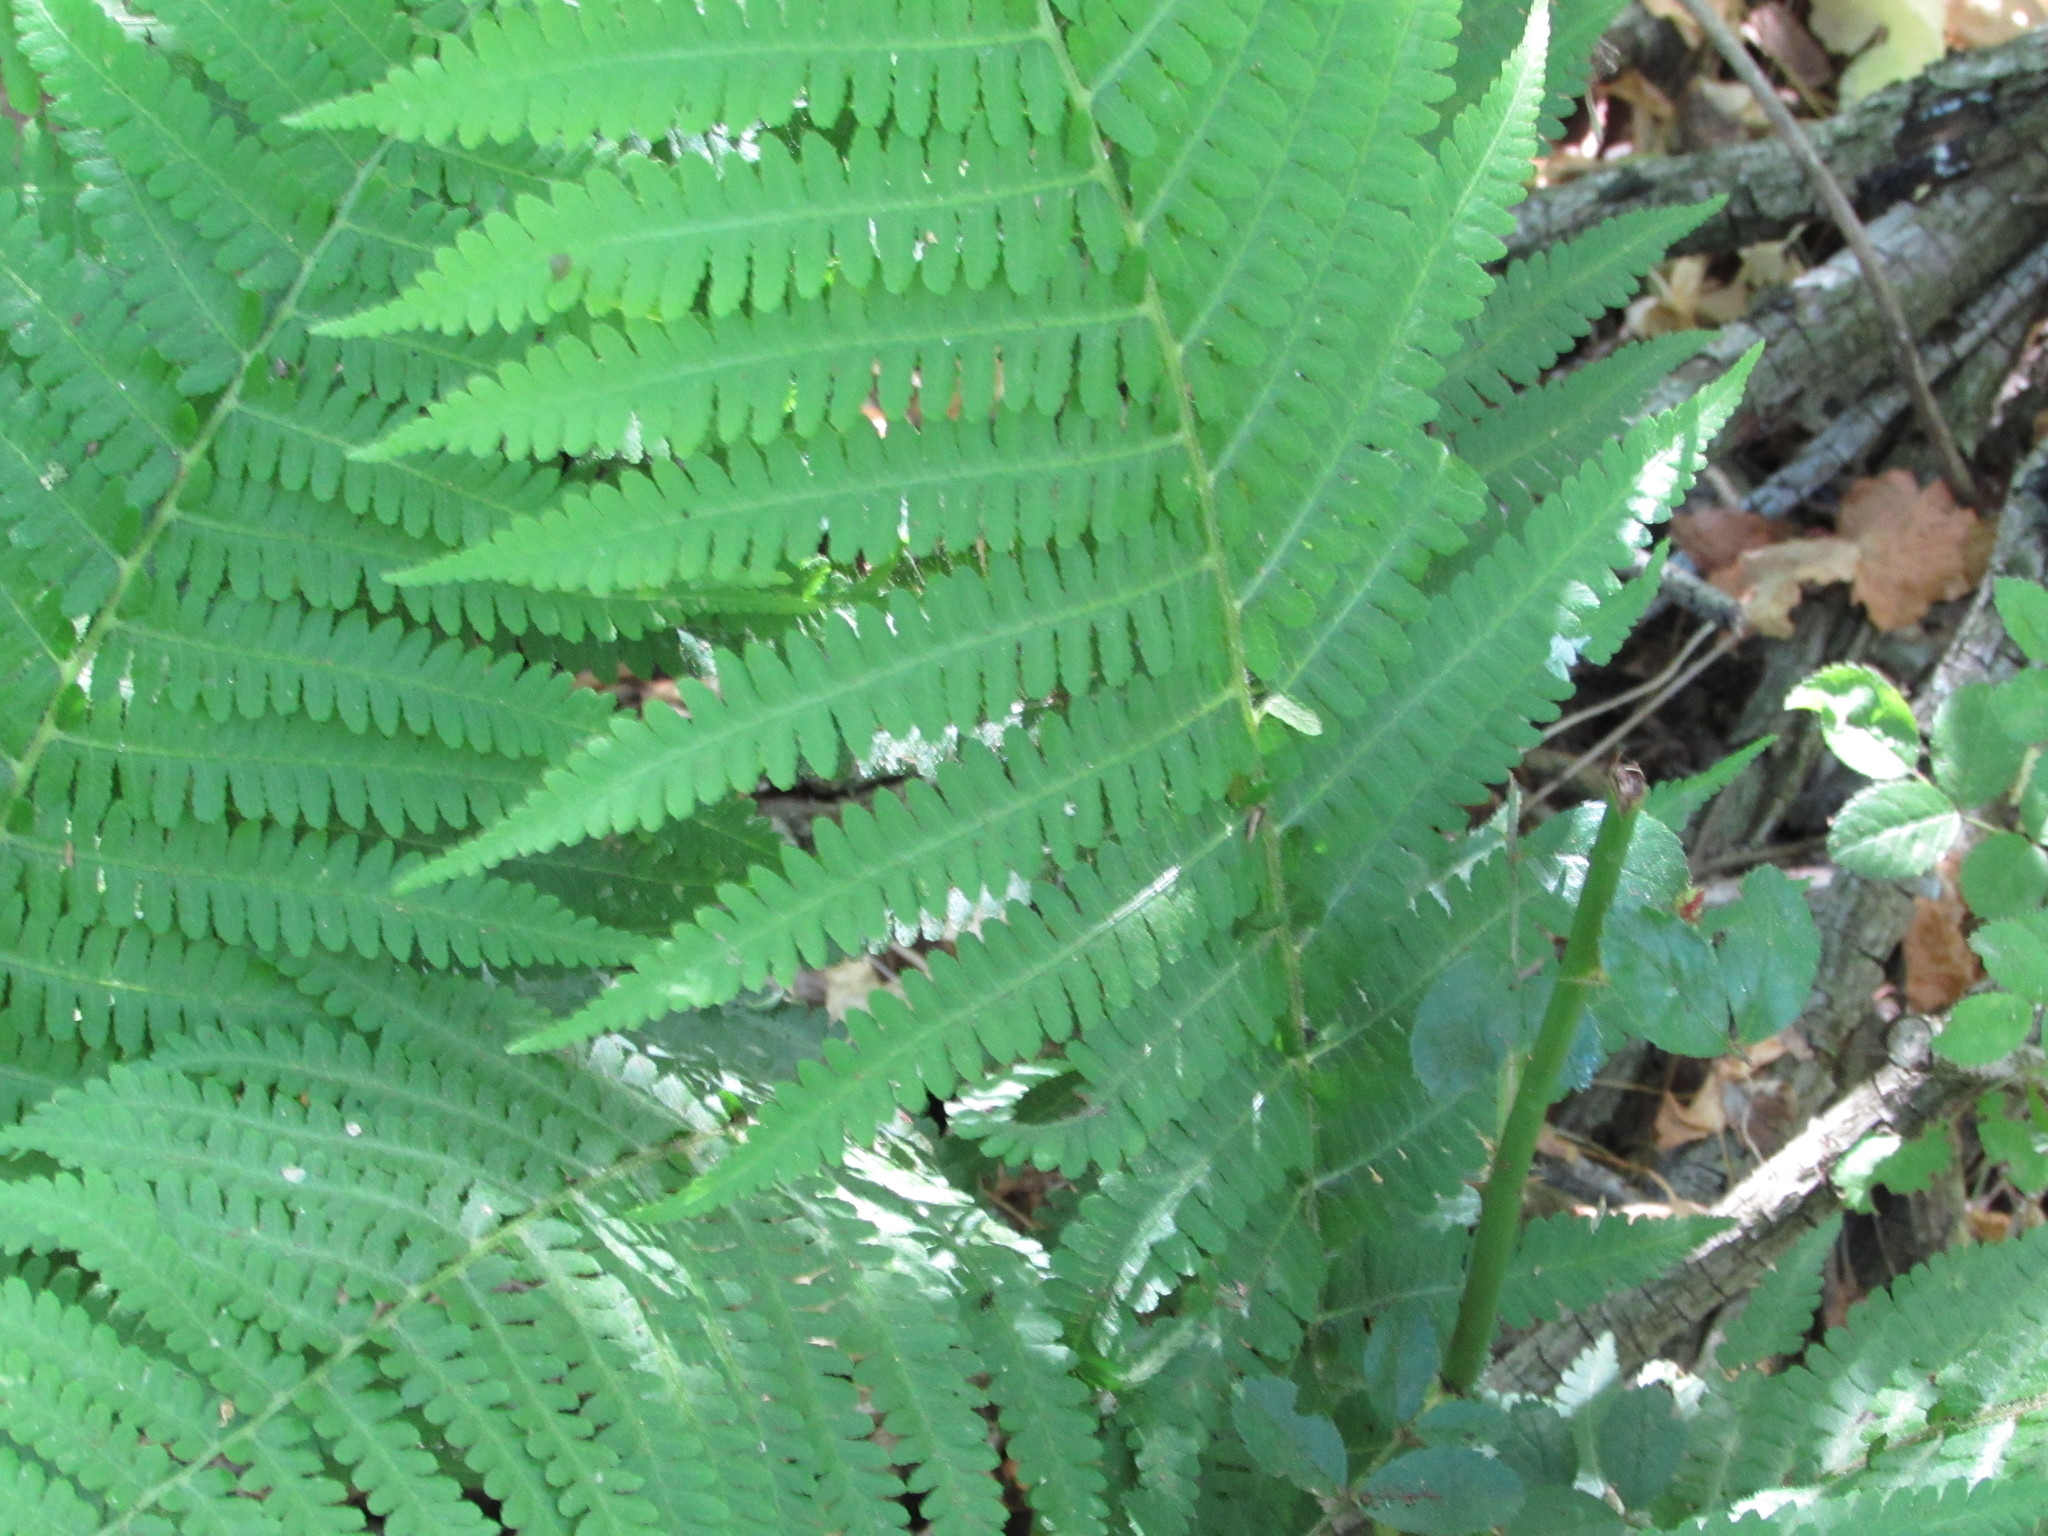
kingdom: Plantae
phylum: Tracheophyta
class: Polypodiopsida
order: Polypodiales
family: Athyriaceae
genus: Deparia
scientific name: Deparia acrostichoides
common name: Silver false spleenwort
